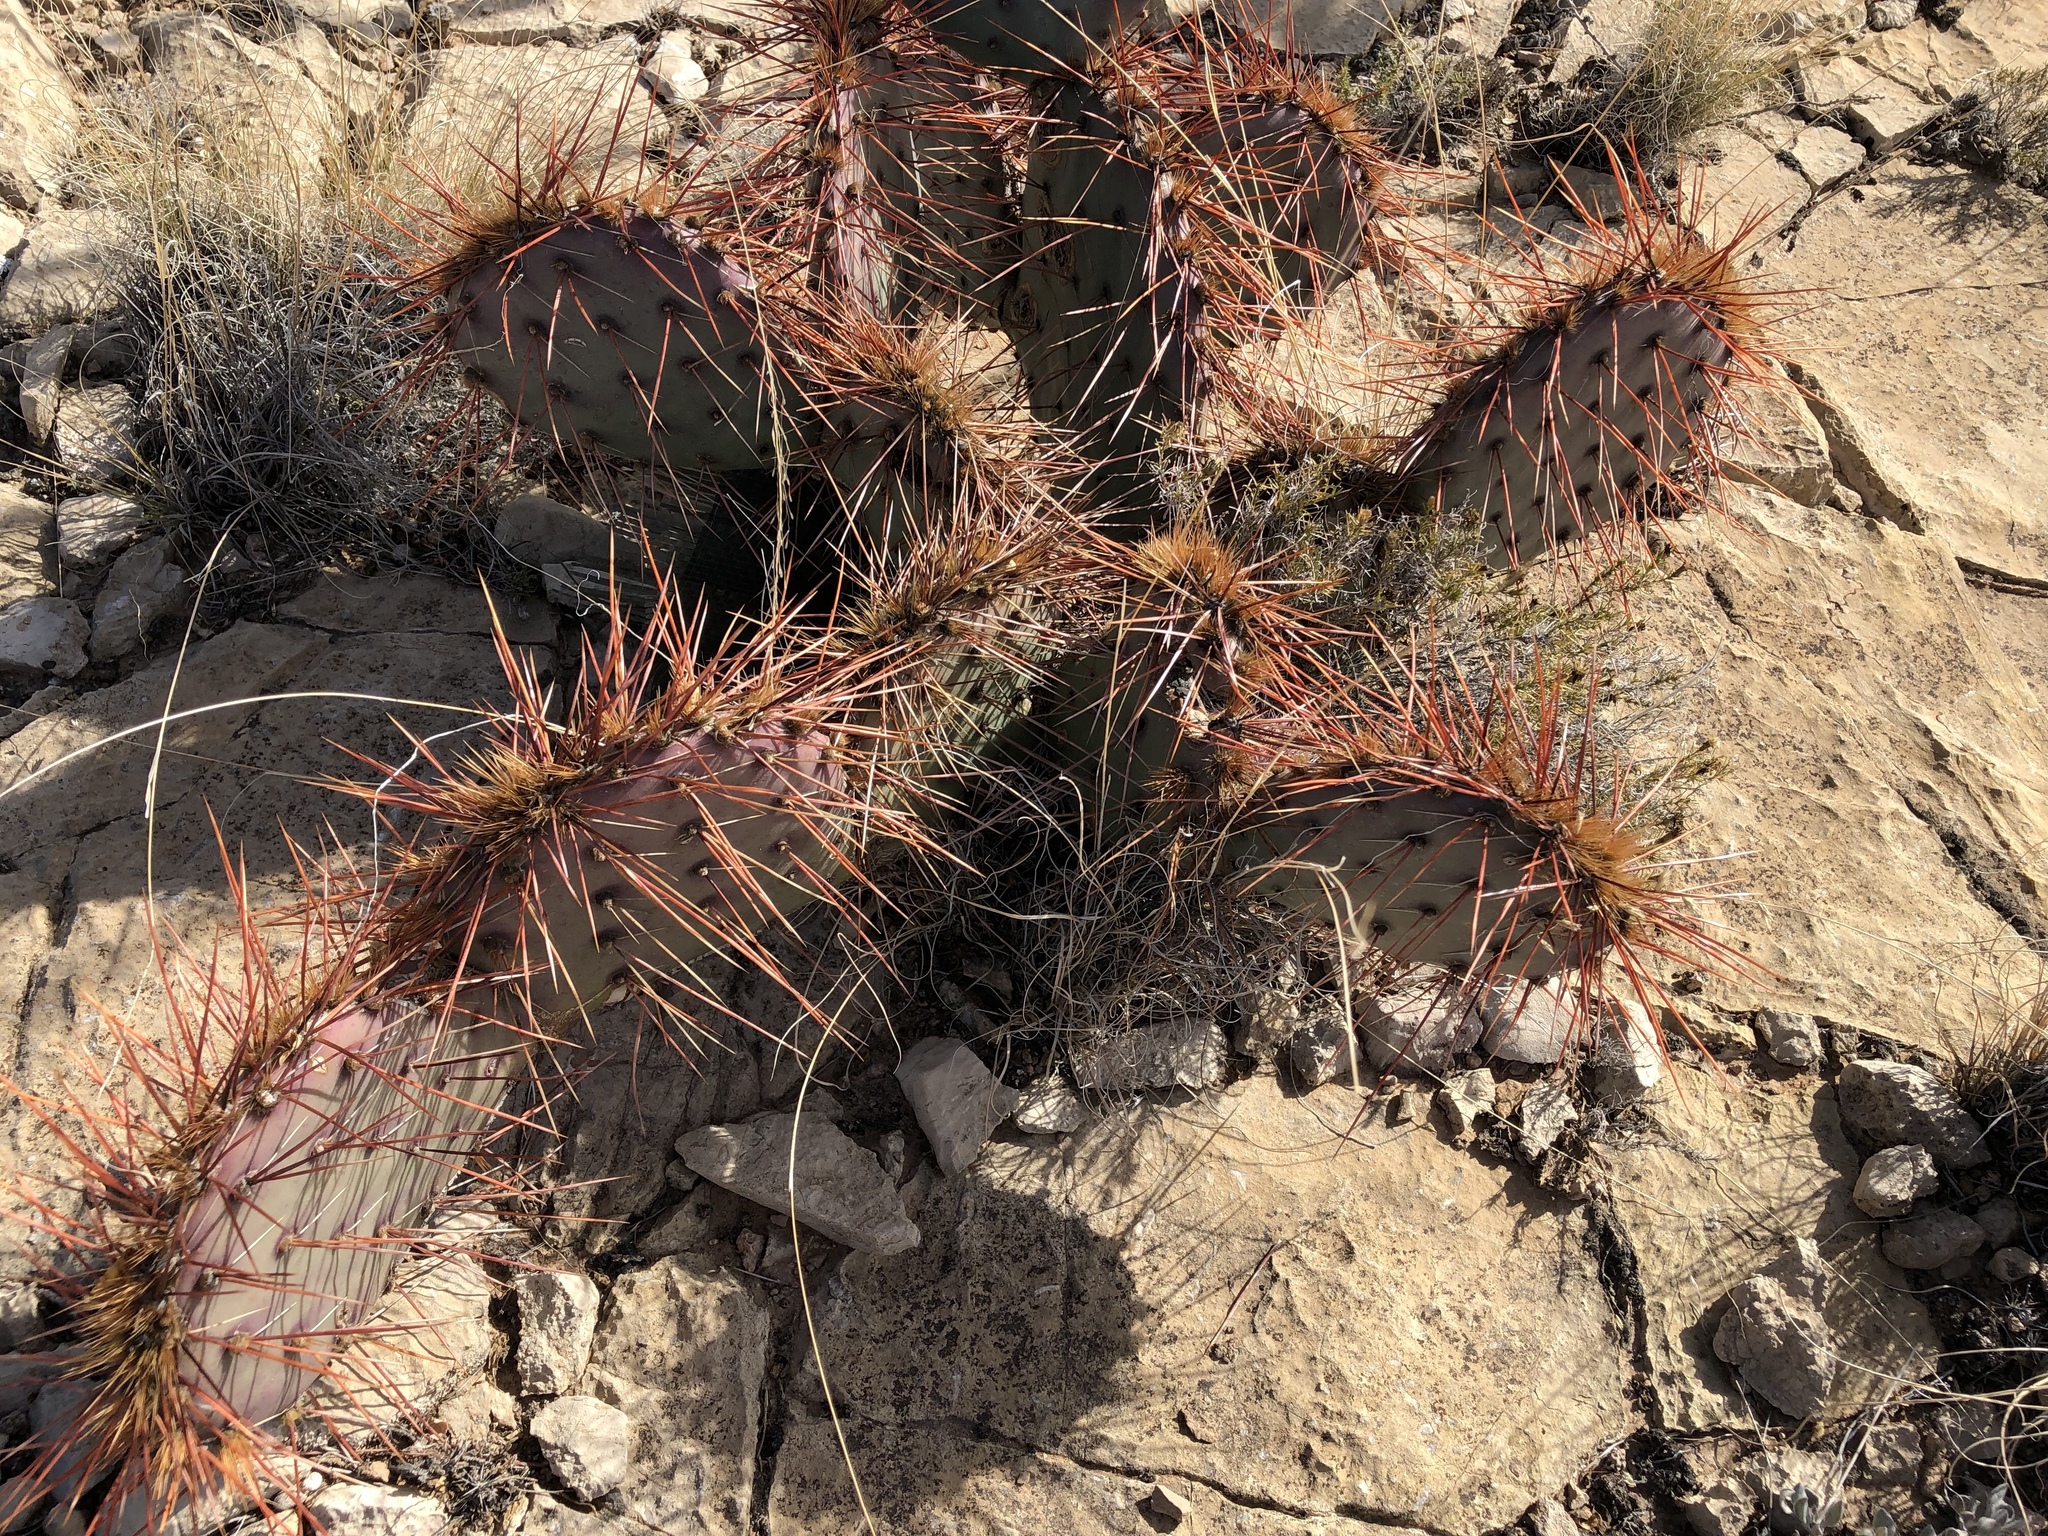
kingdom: Plantae
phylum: Tracheophyta
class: Magnoliopsida
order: Caryophyllales
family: Cactaceae
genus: Opuntia
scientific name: Opuntia phaeacantha
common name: New mexico prickly-pear
